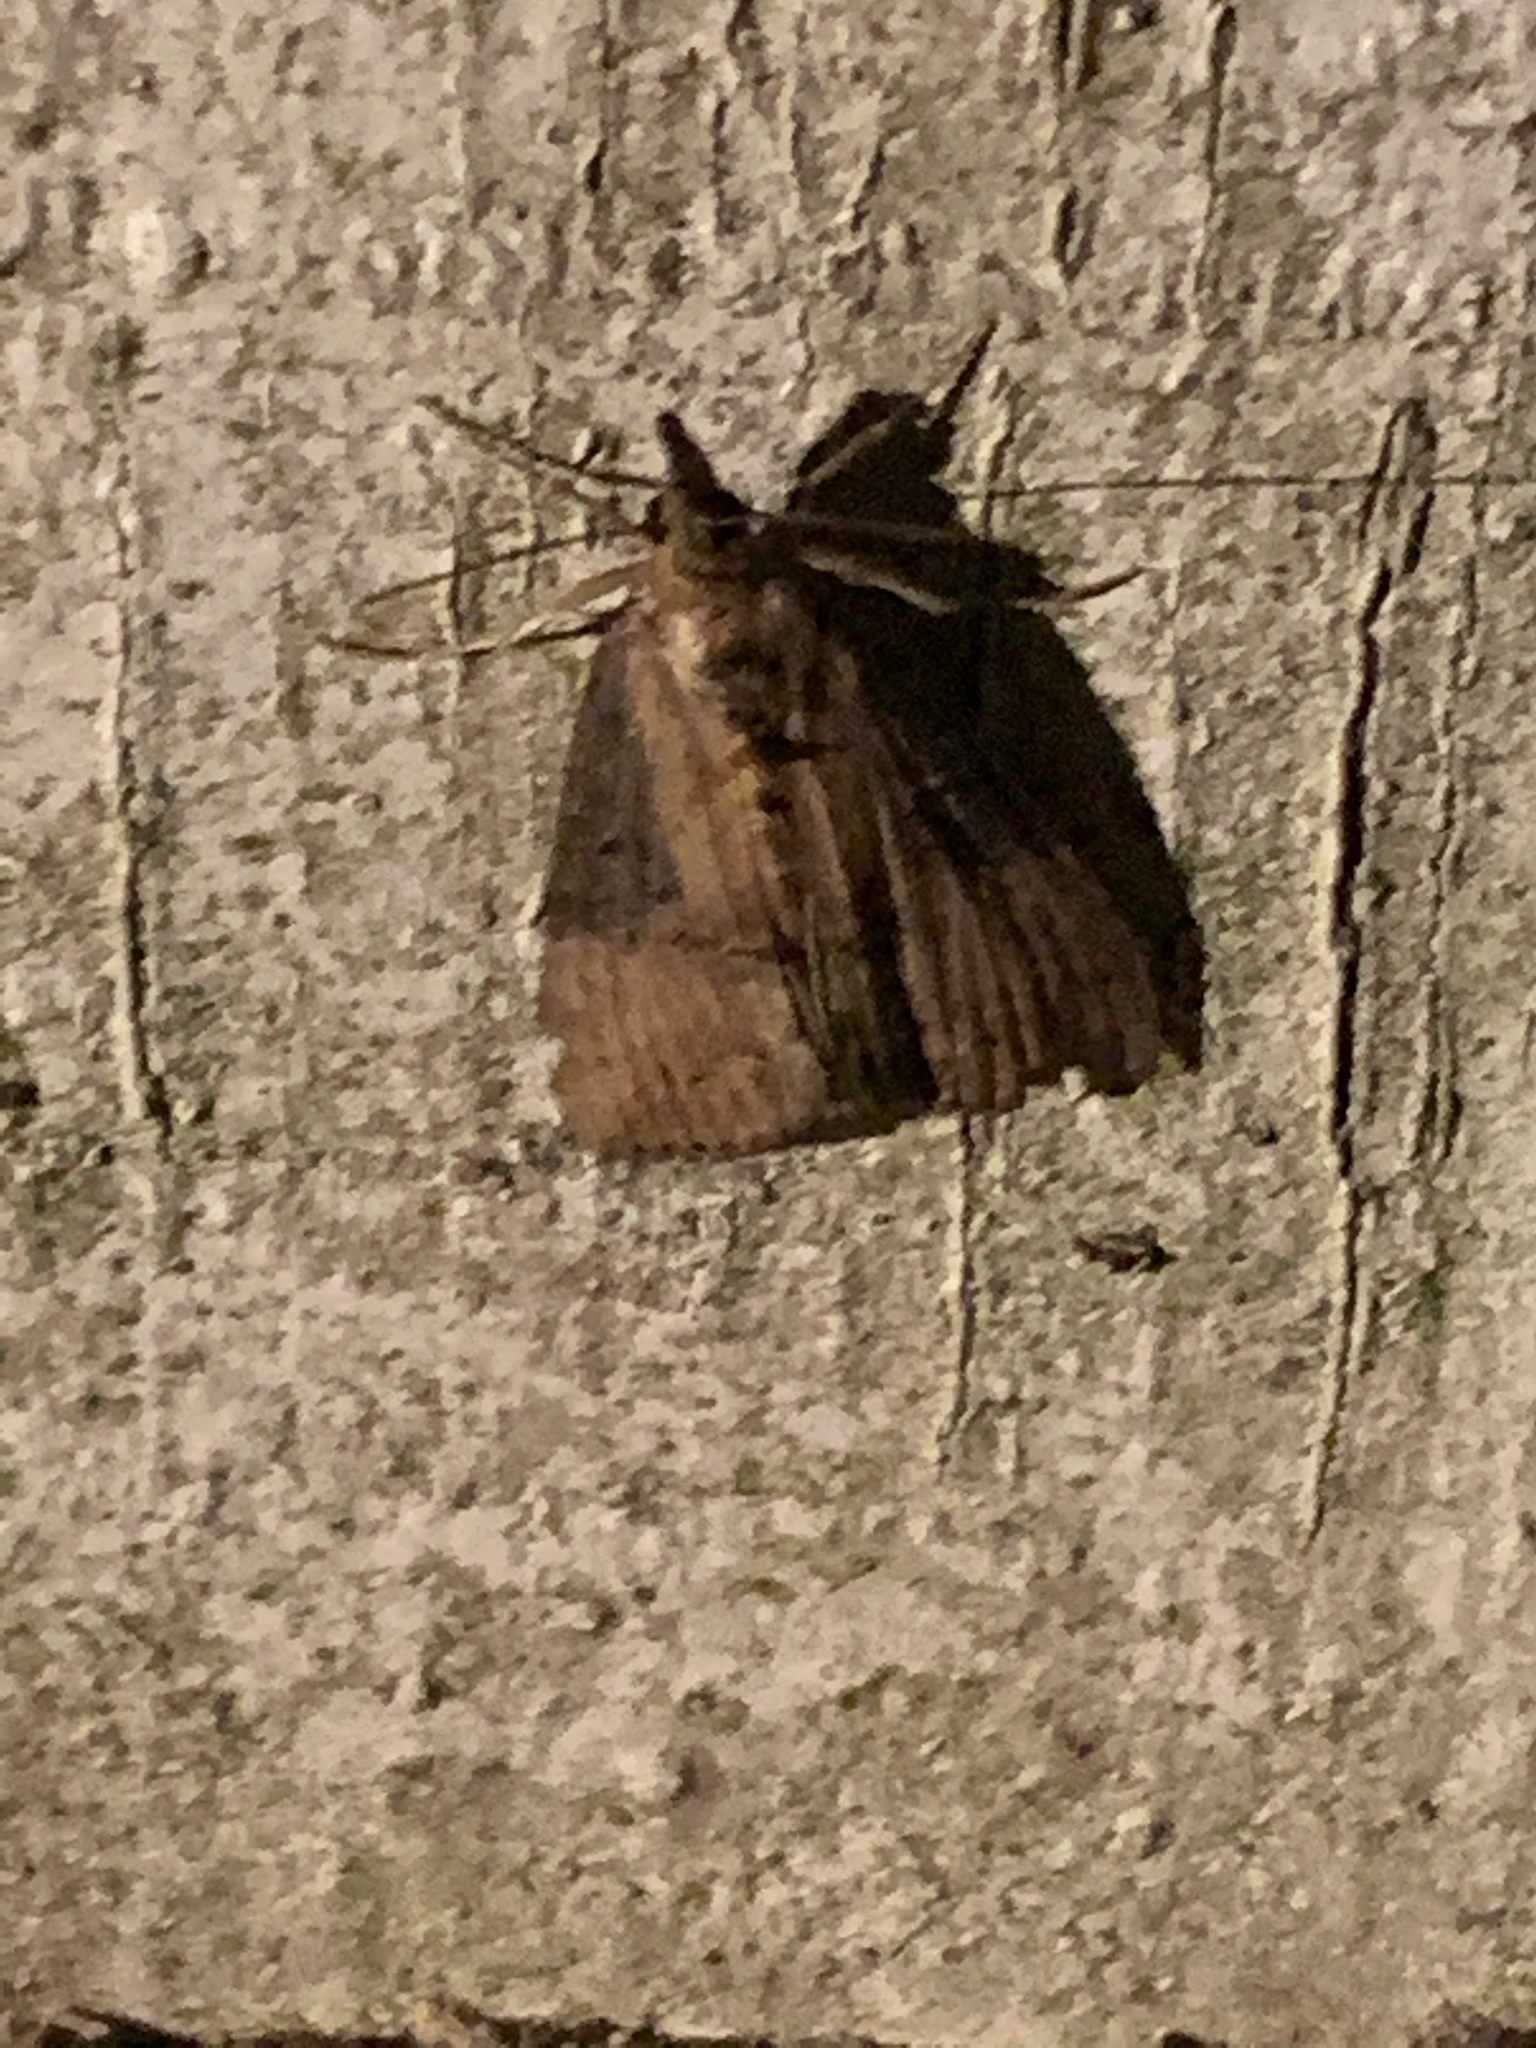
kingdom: Animalia
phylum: Arthropoda
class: Insecta
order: Lepidoptera
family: Erebidae
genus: Hypena
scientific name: Hypena scabra
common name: Green cloverworm
